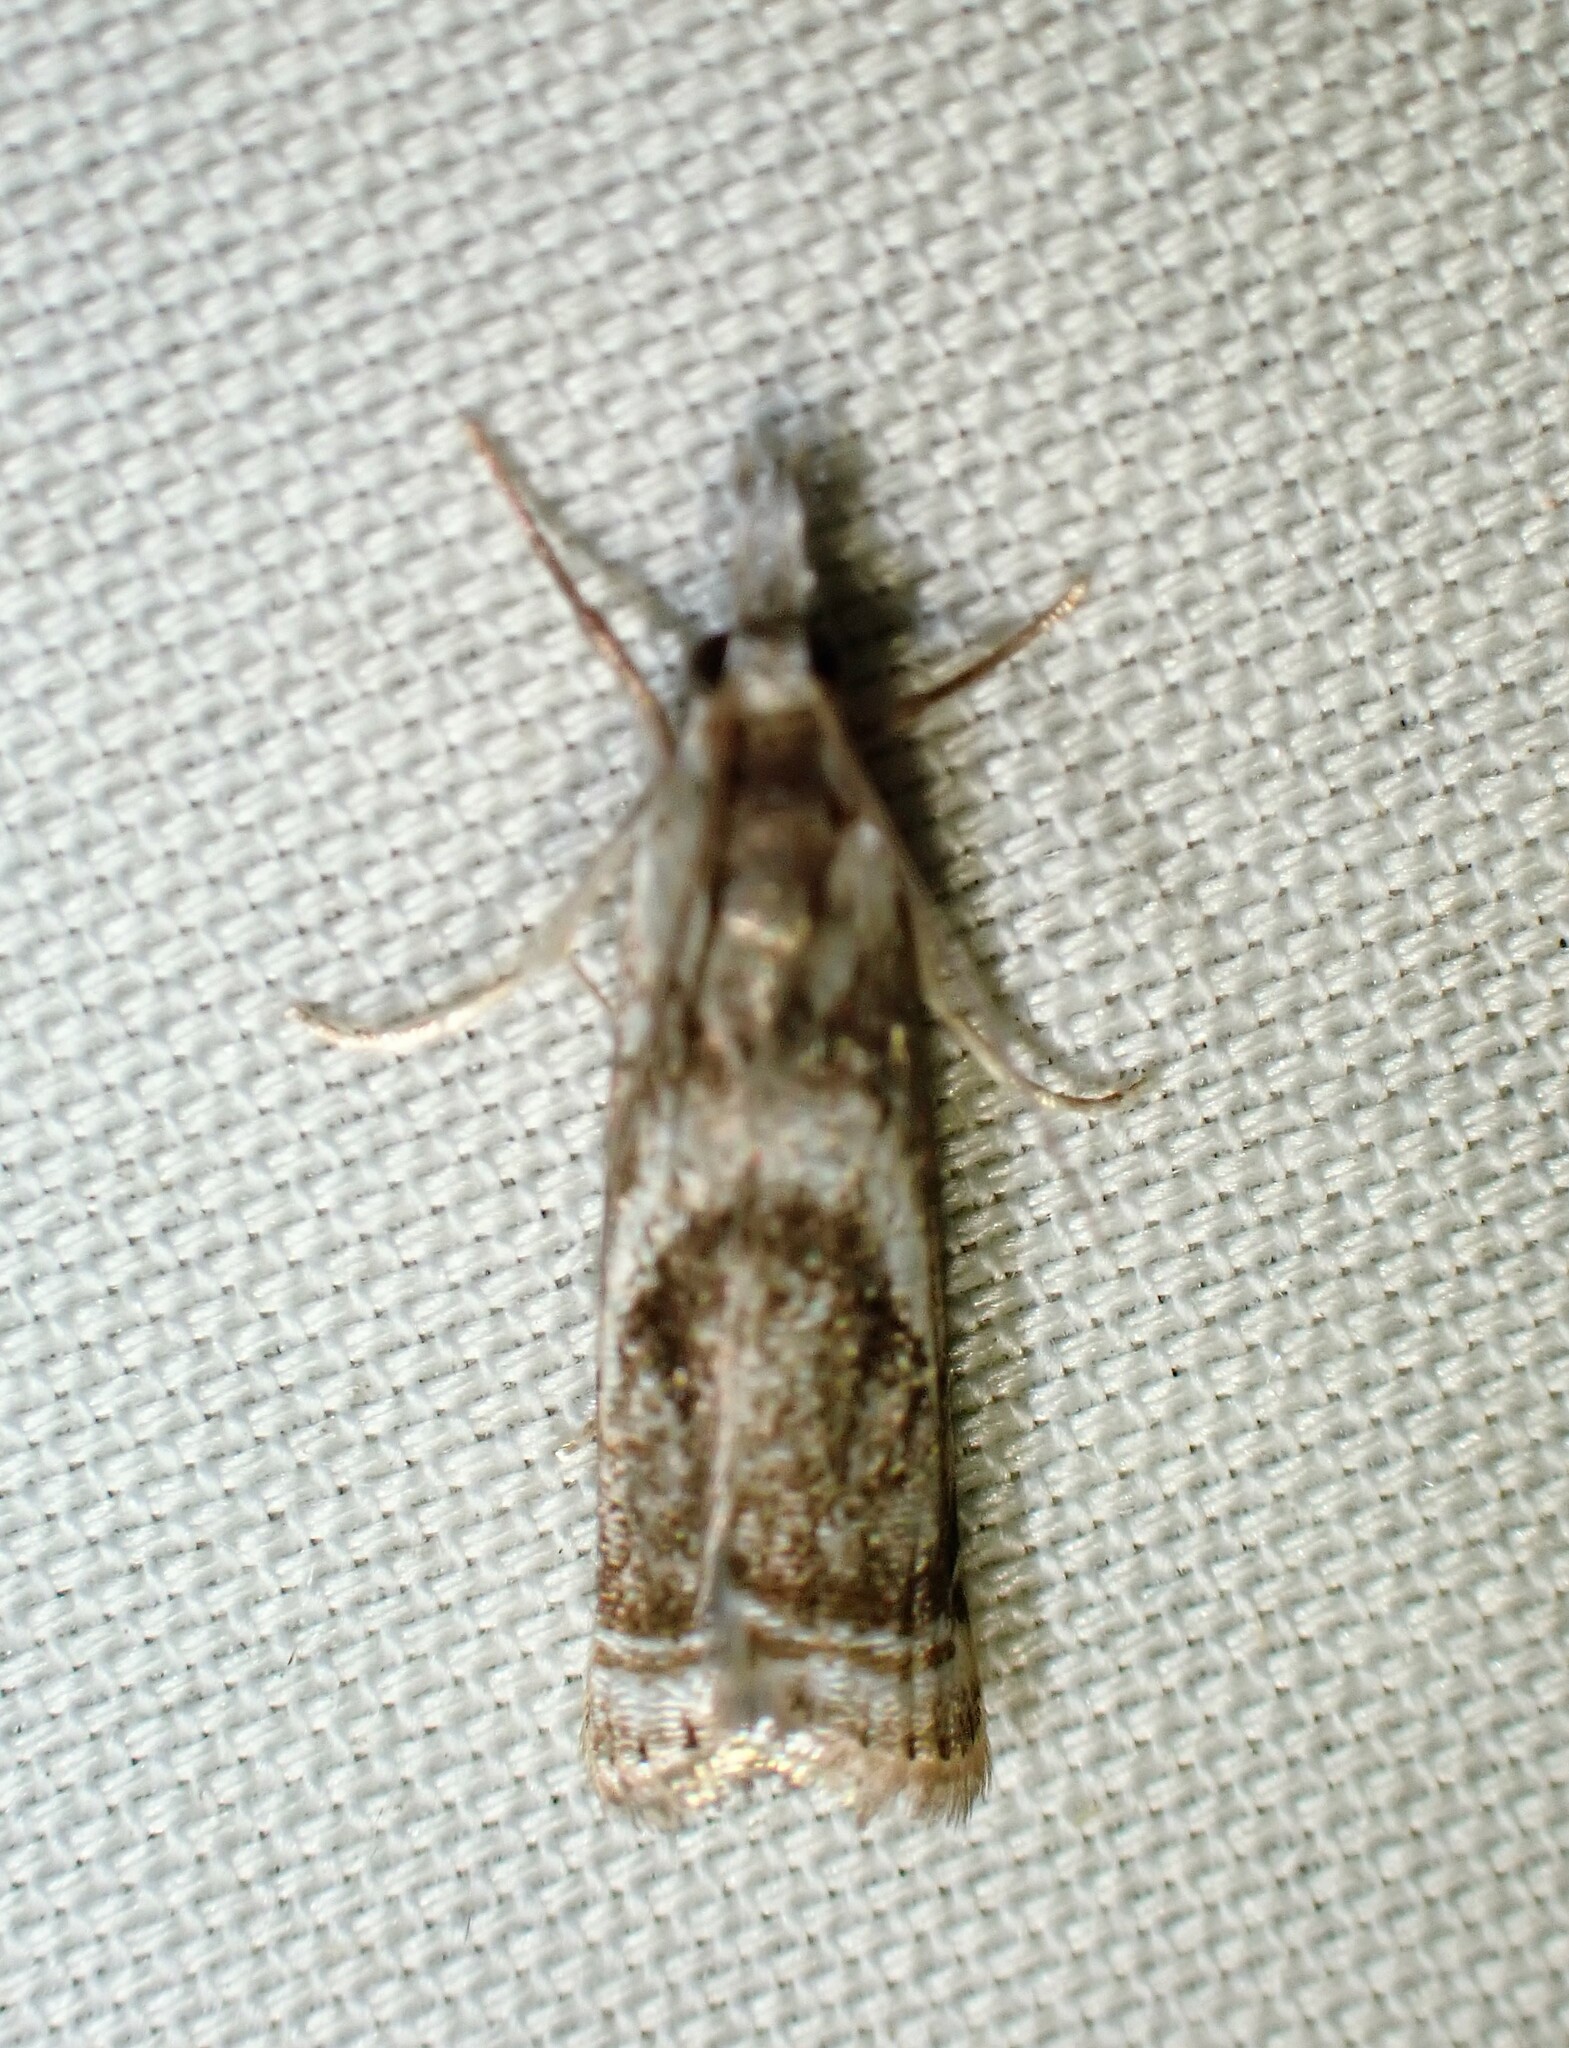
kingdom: Animalia
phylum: Arthropoda
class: Insecta
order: Lepidoptera
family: Crambidae
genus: Microcrambus
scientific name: Microcrambus elegans
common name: Elegant grass-veneer
